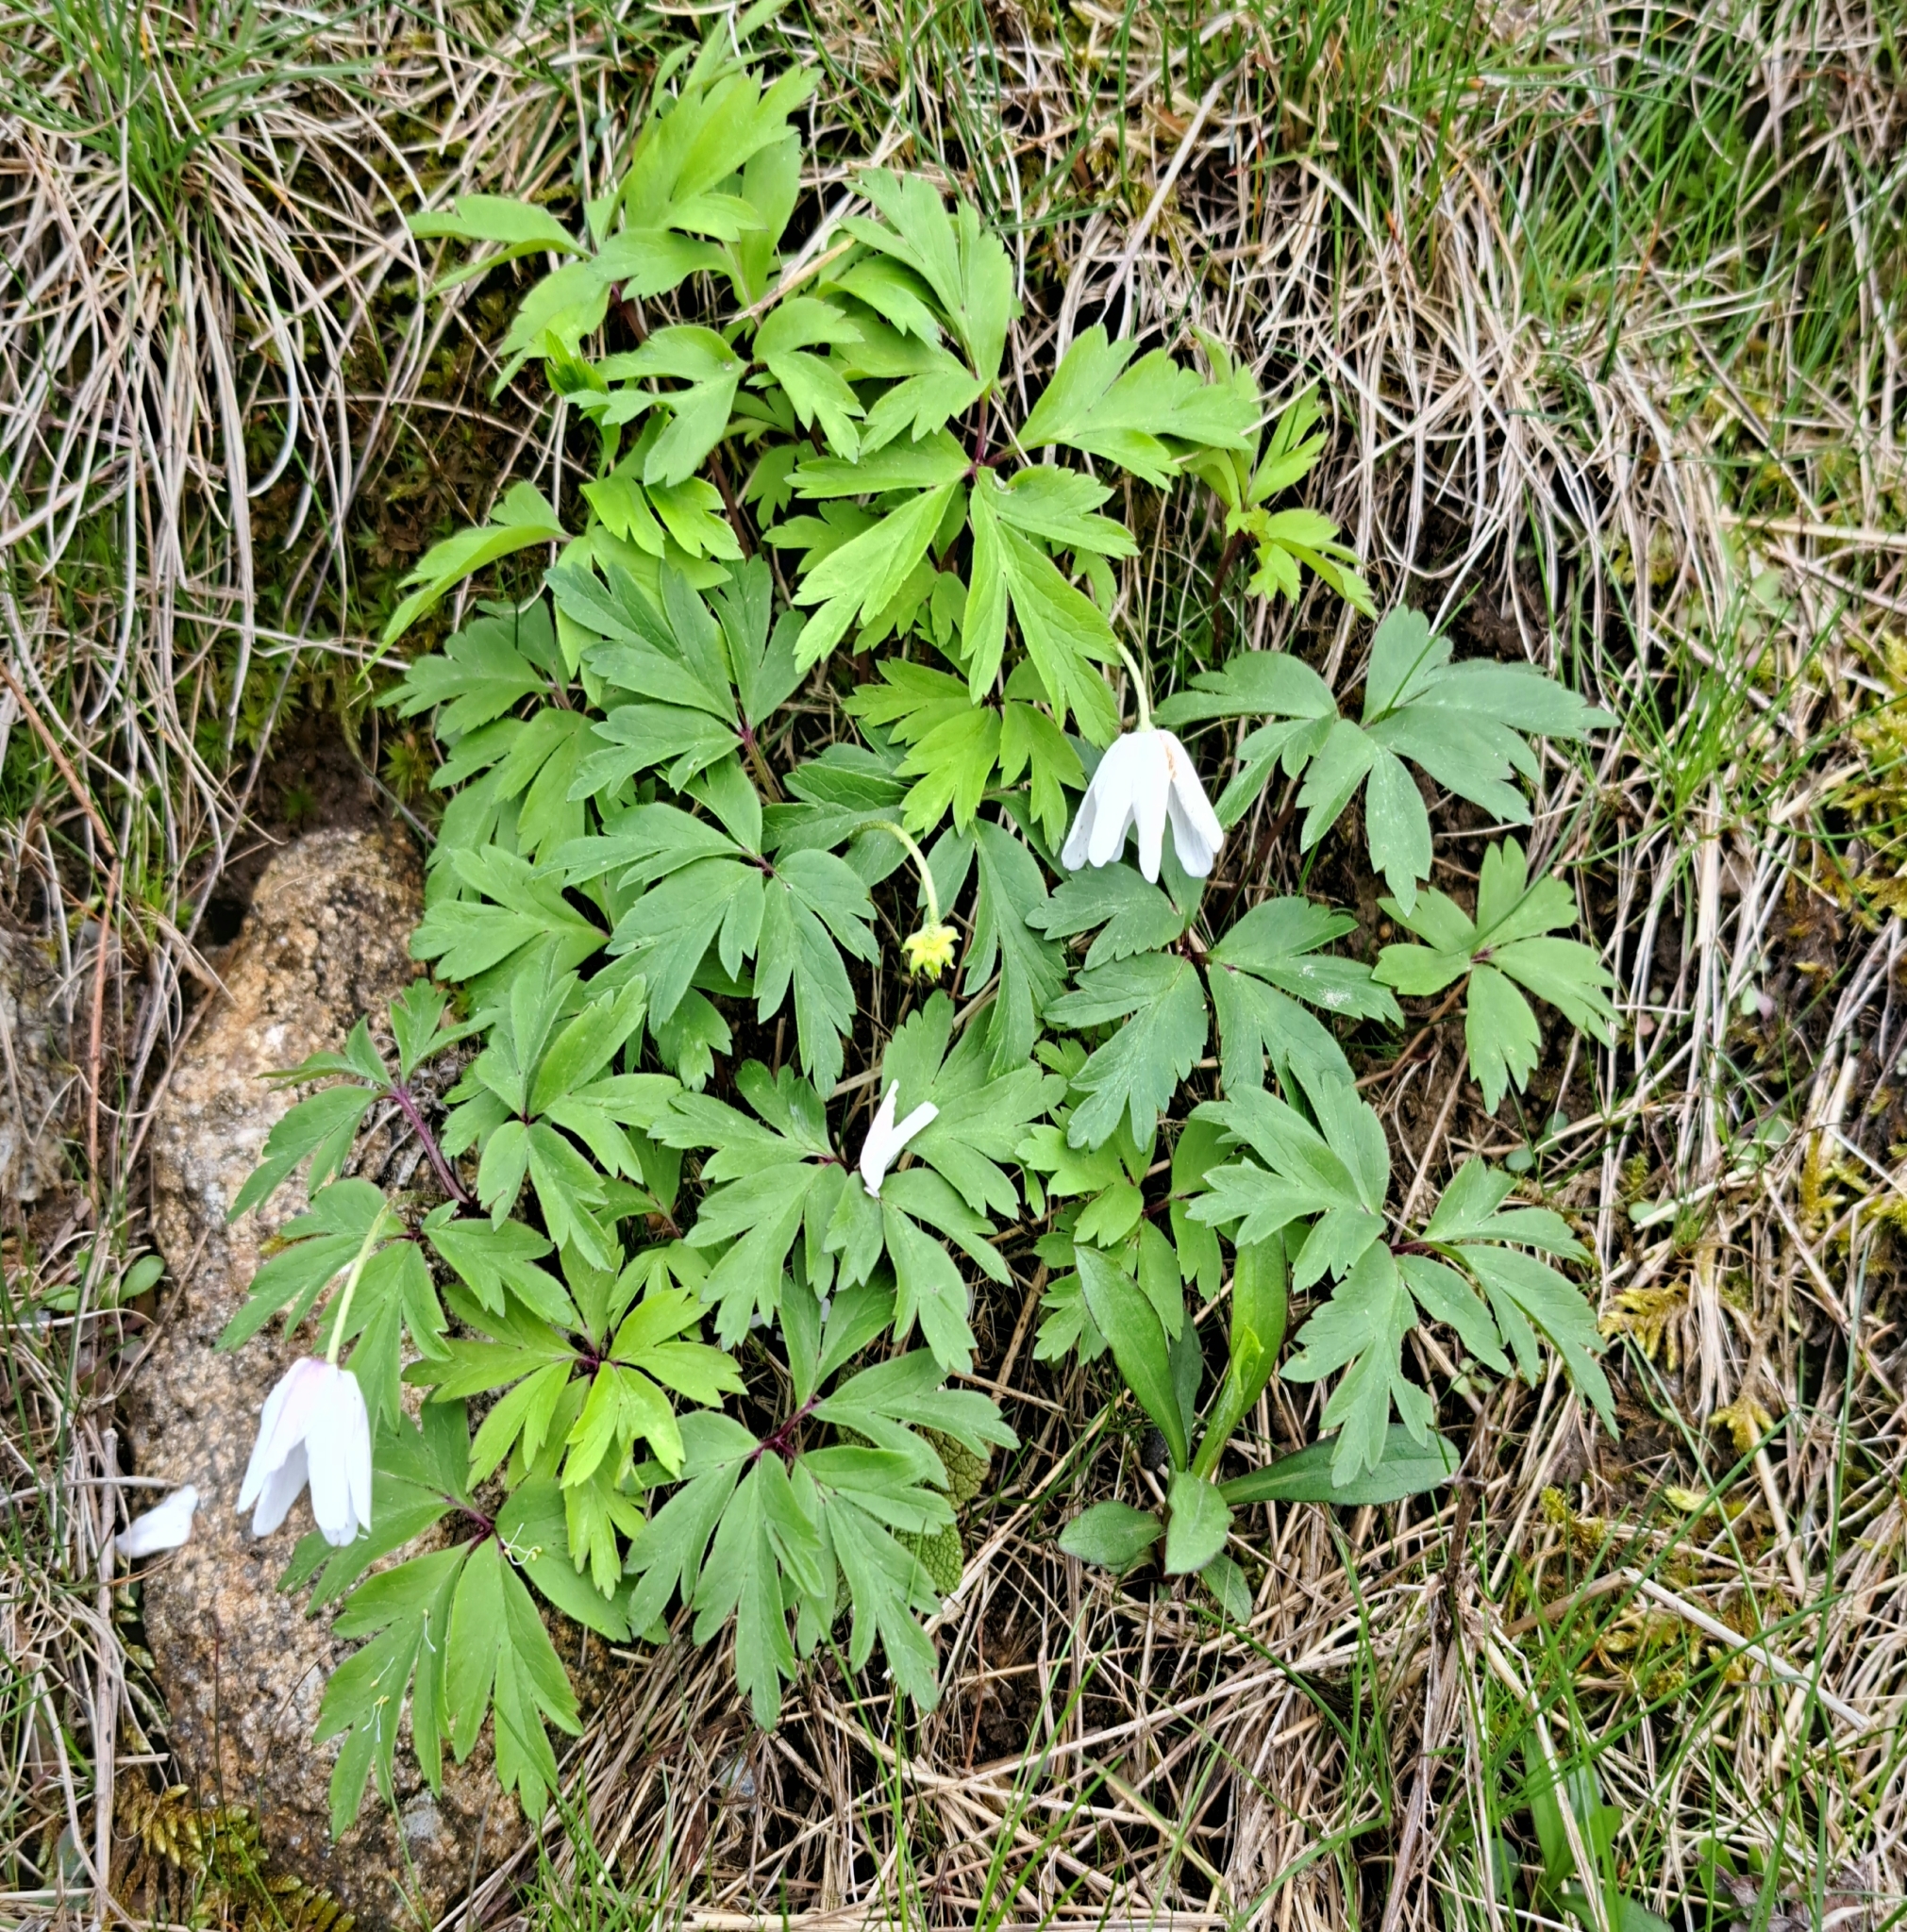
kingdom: Plantae
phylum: Tracheophyta
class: Magnoliopsida
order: Ranunculales
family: Ranunculaceae
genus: Anemone
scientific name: Anemone nemorosa
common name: Wood anemone
